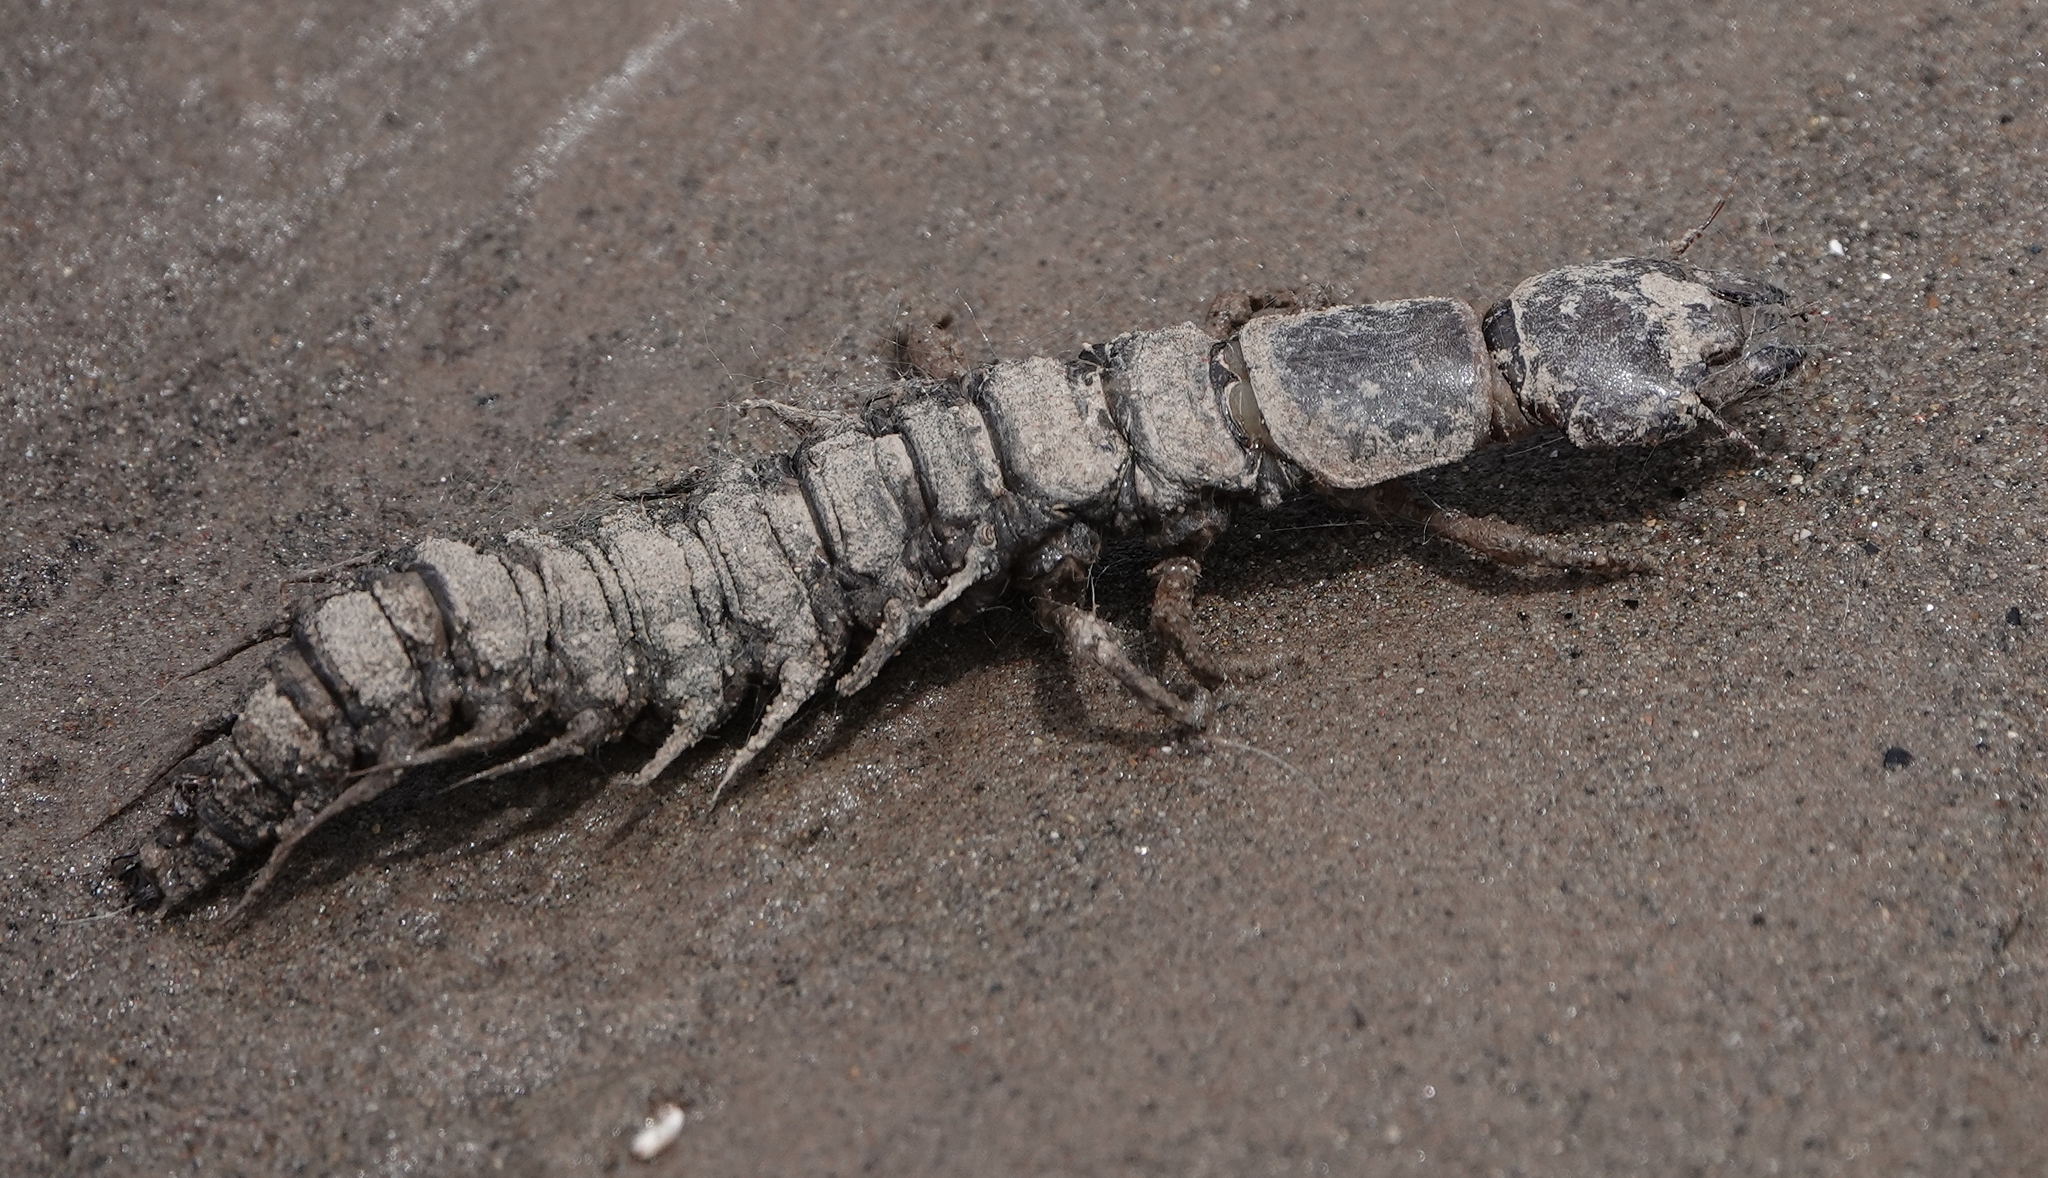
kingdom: Animalia
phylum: Arthropoda
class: Insecta
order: Megaloptera
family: Corydalidae
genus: Corydalus
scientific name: Corydalus texanus
